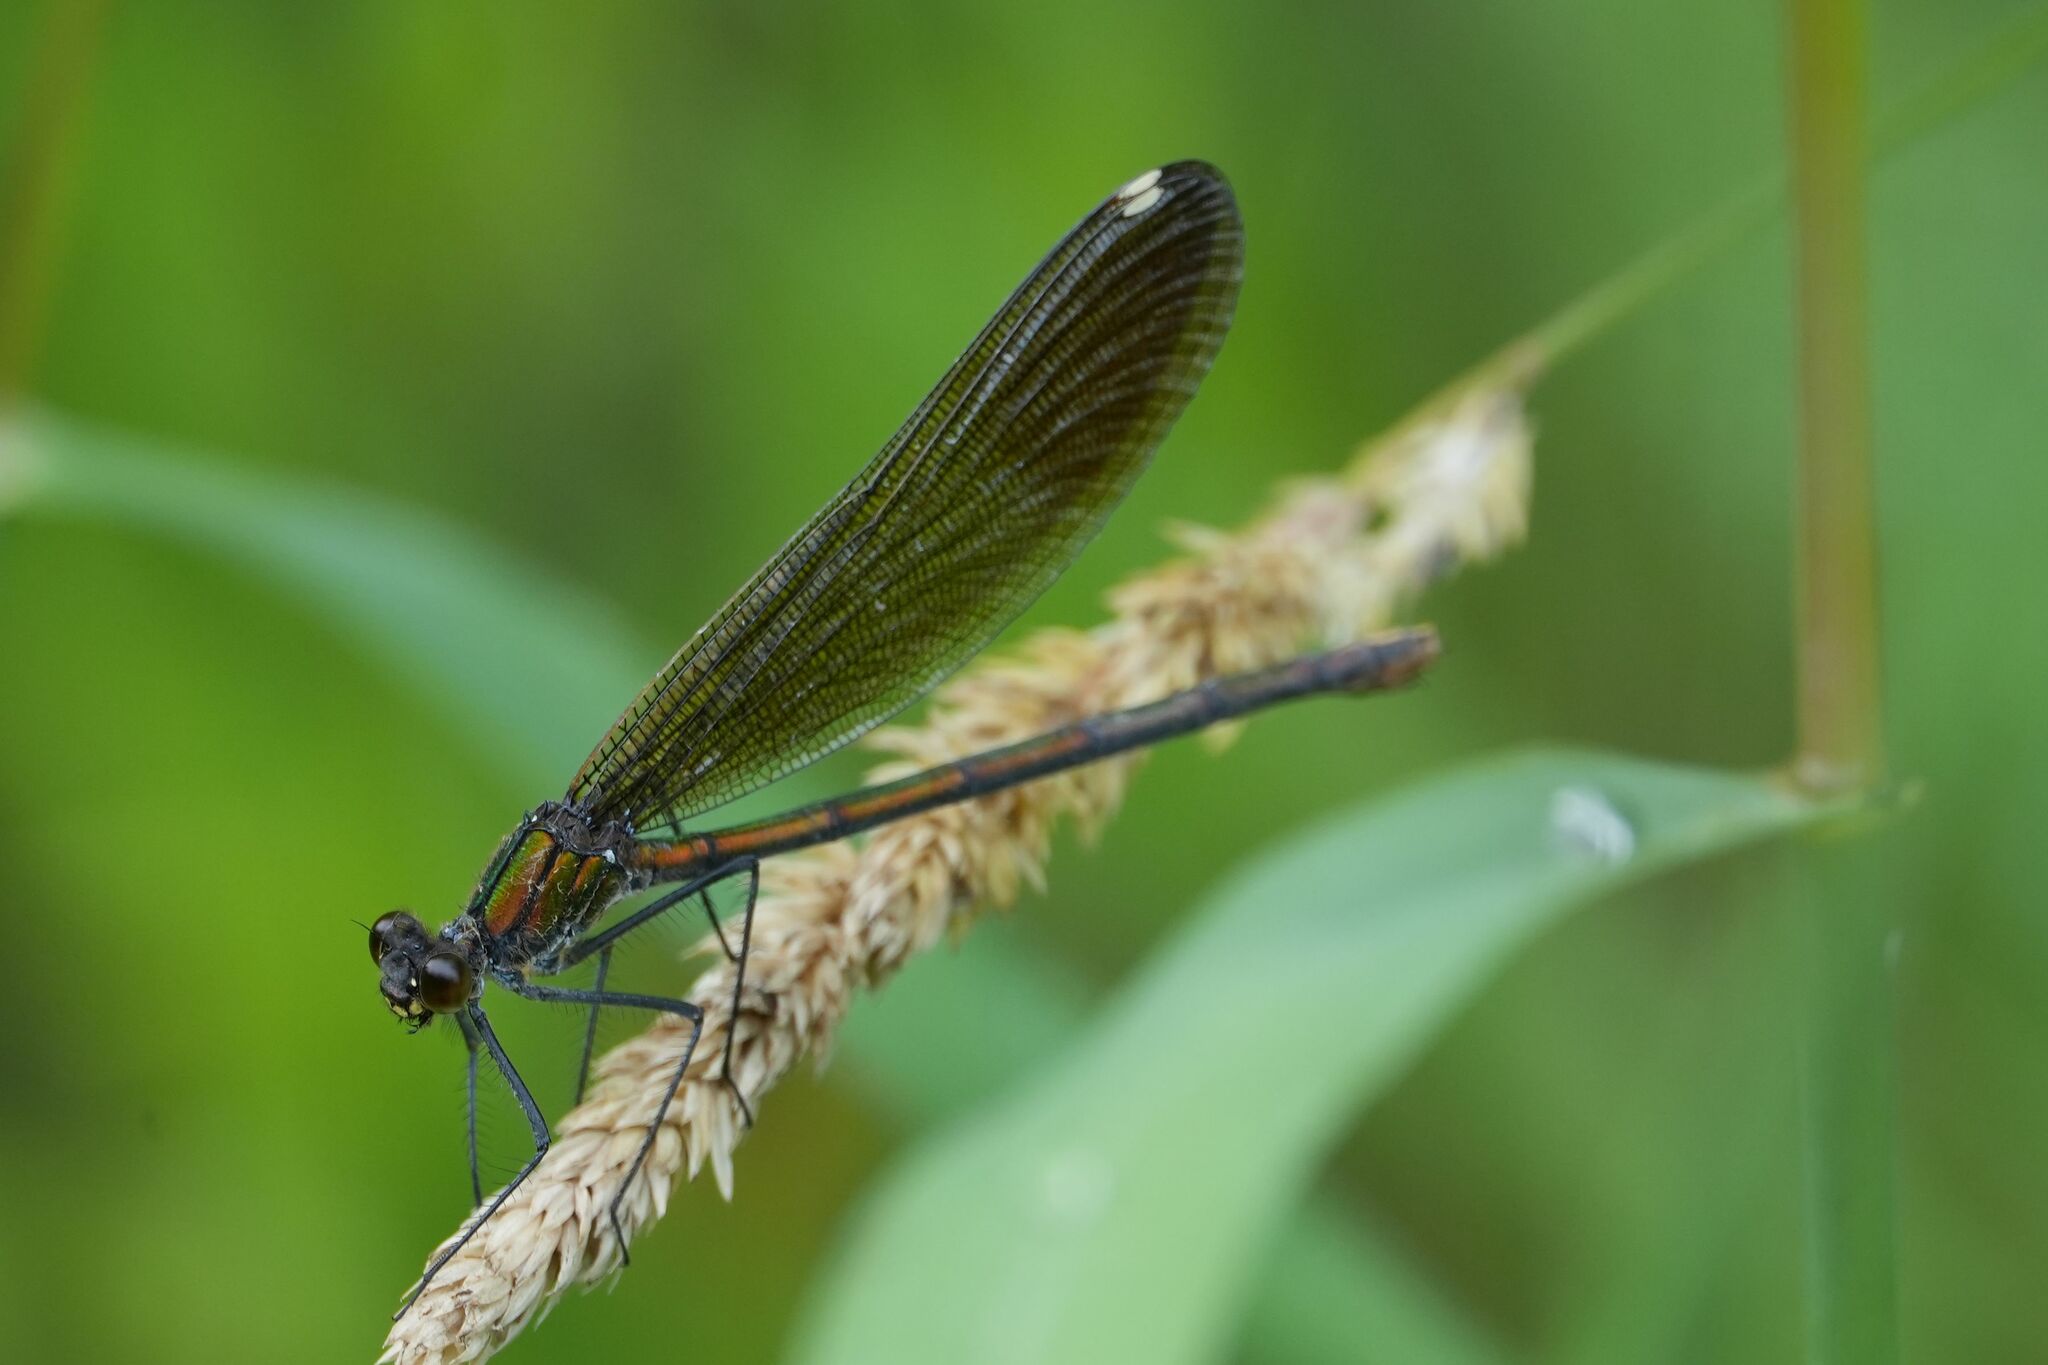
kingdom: Animalia
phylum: Arthropoda
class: Insecta
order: Odonata
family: Calopterygidae
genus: Calopteryx
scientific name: Calopteryx aequabilis
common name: River jewelwing
